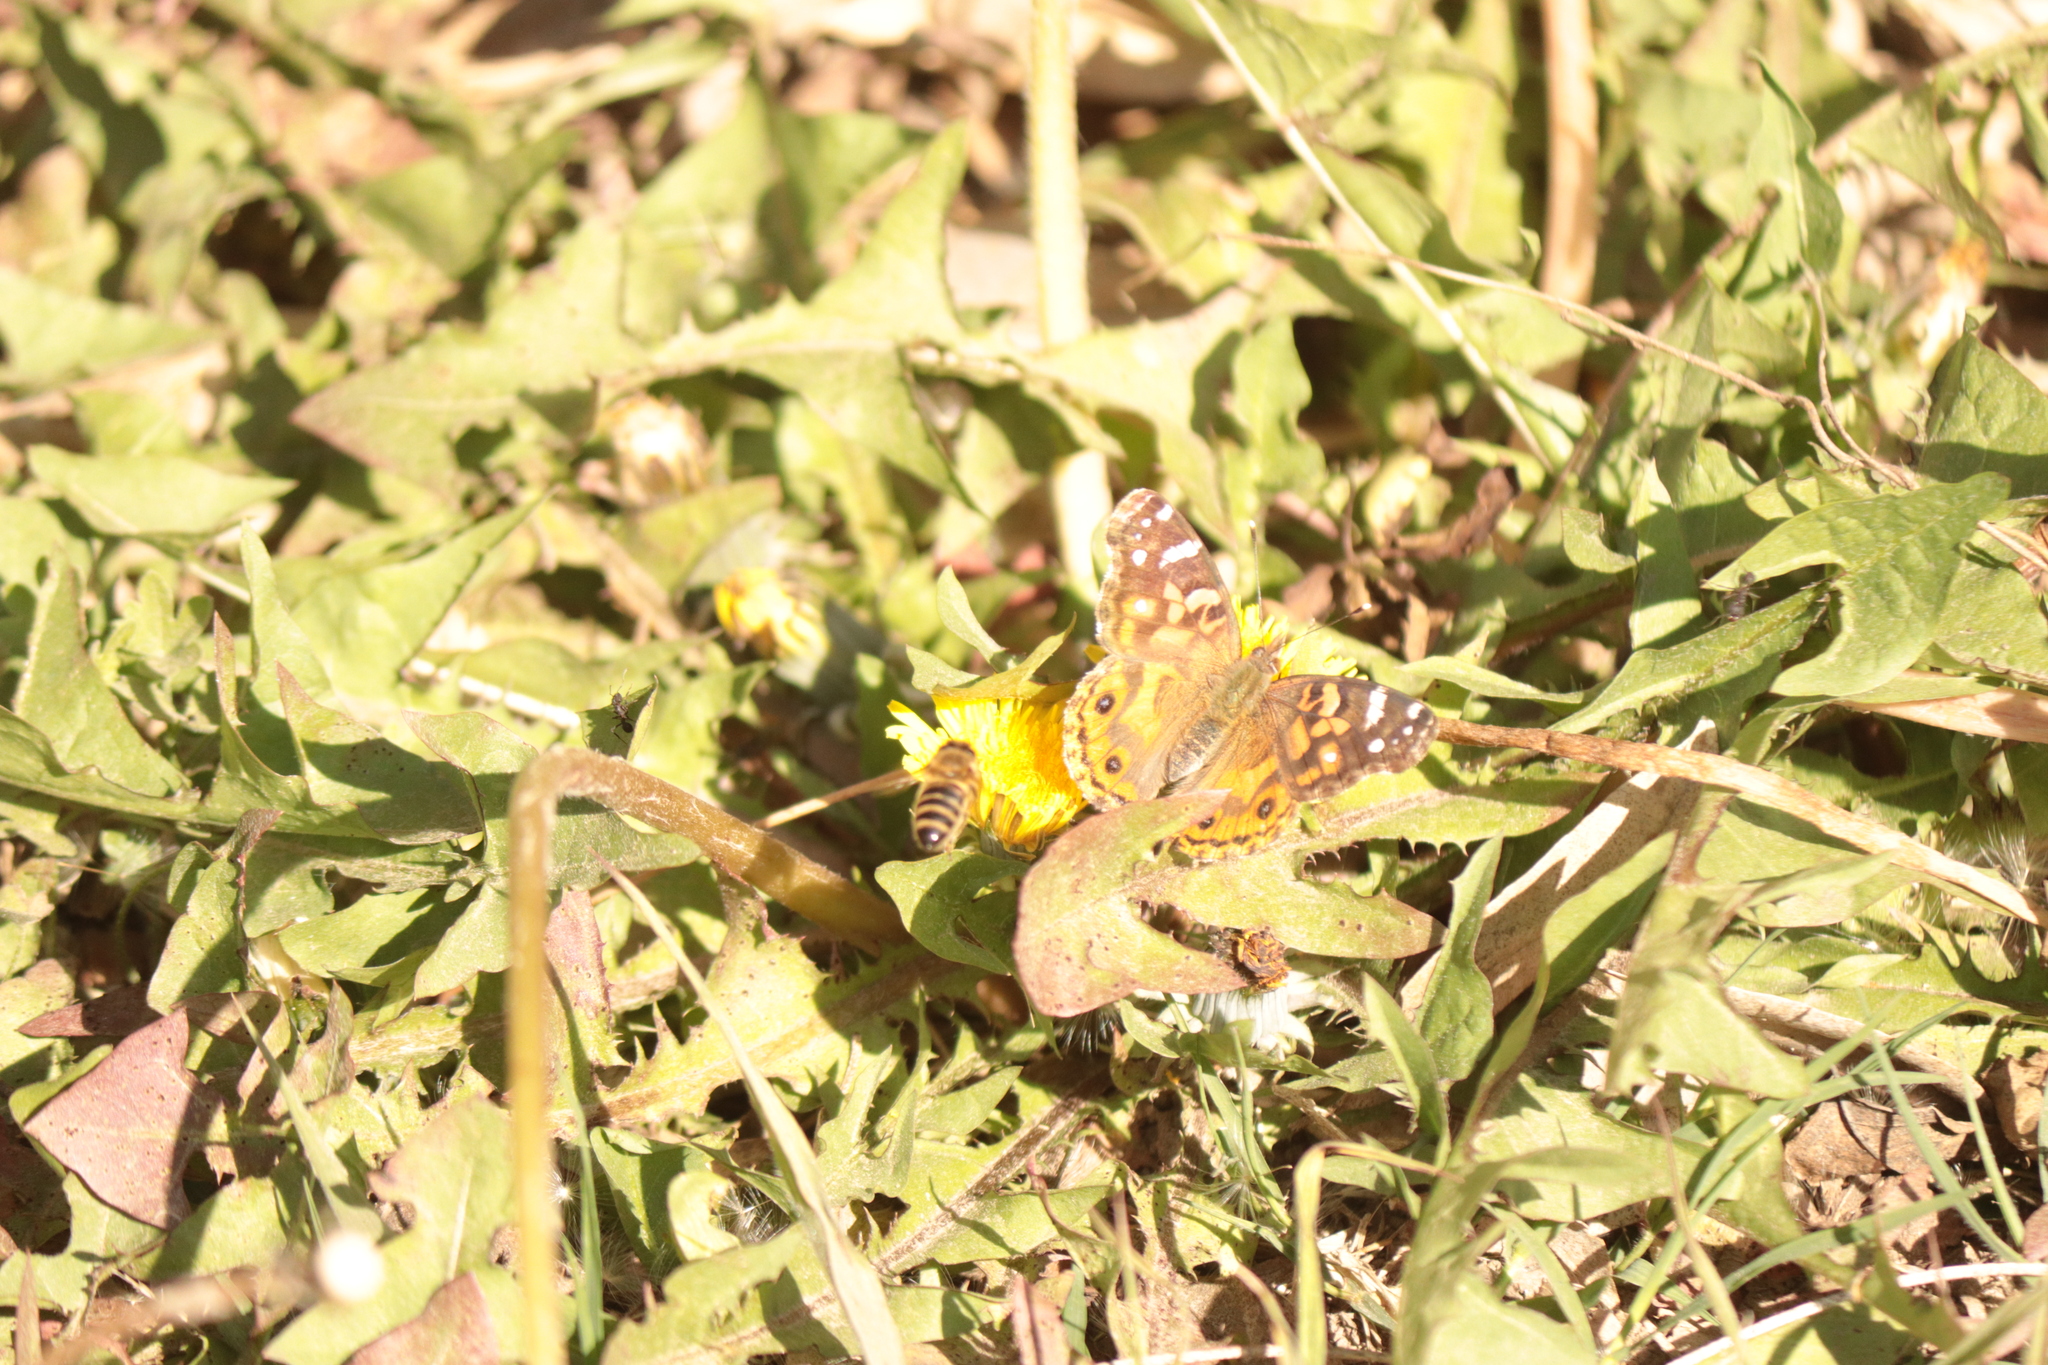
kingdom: Animalia
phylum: Arthropoda
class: Insecta
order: Hymenoptera
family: Apidae
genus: Apis
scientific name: Apis mellifera
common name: Honey bee
